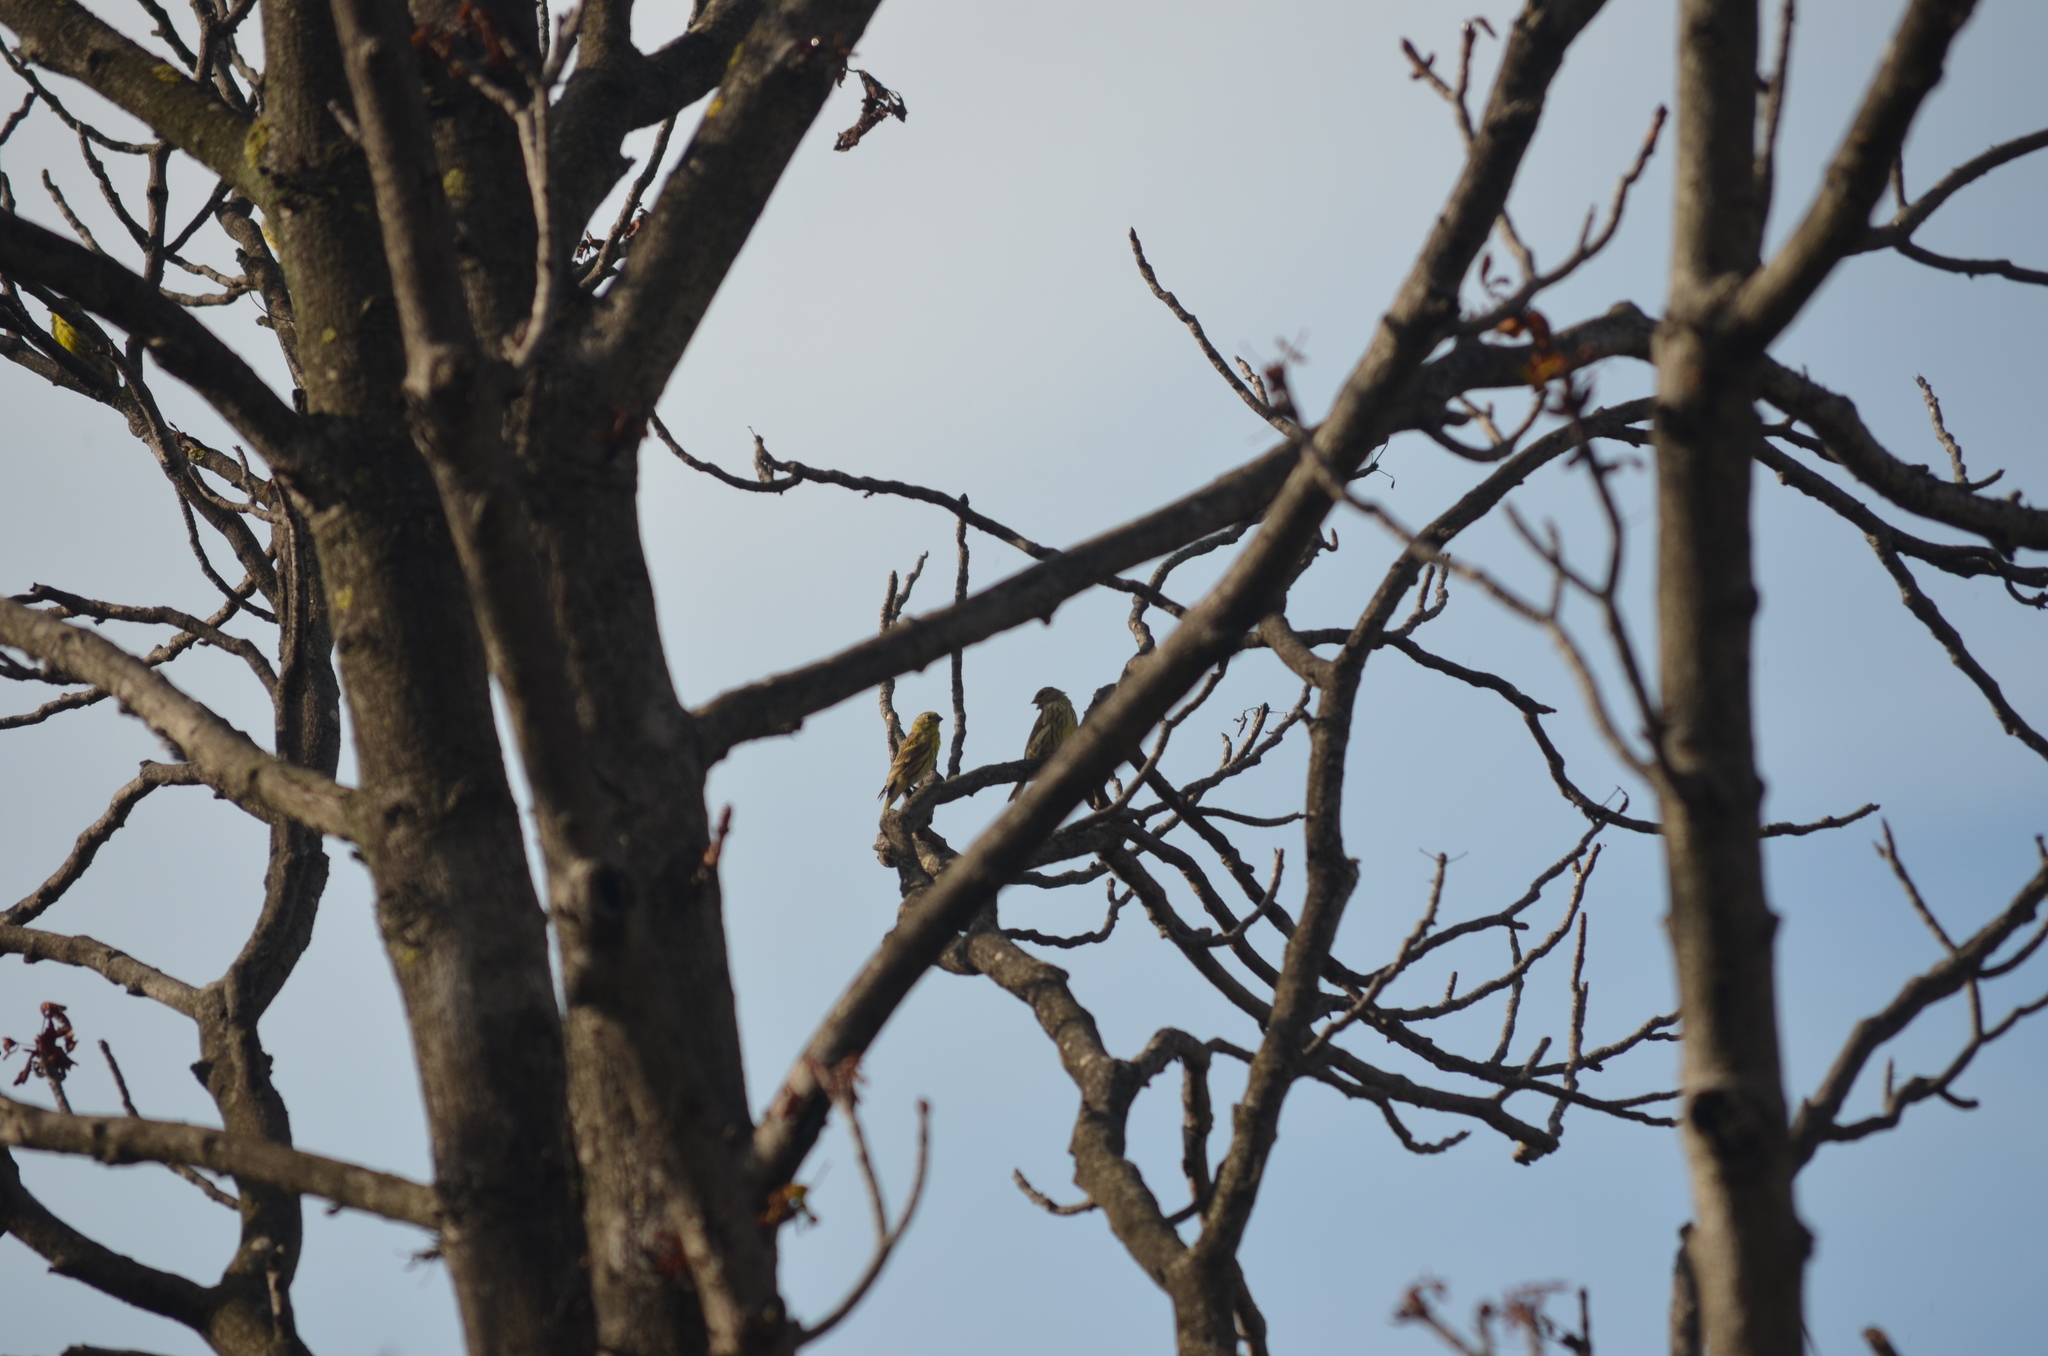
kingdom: Animalia
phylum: Chordata
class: Aves
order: Passeriformes
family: Fringillidae
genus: Serinus
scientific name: Serinus serinus
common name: European serin
